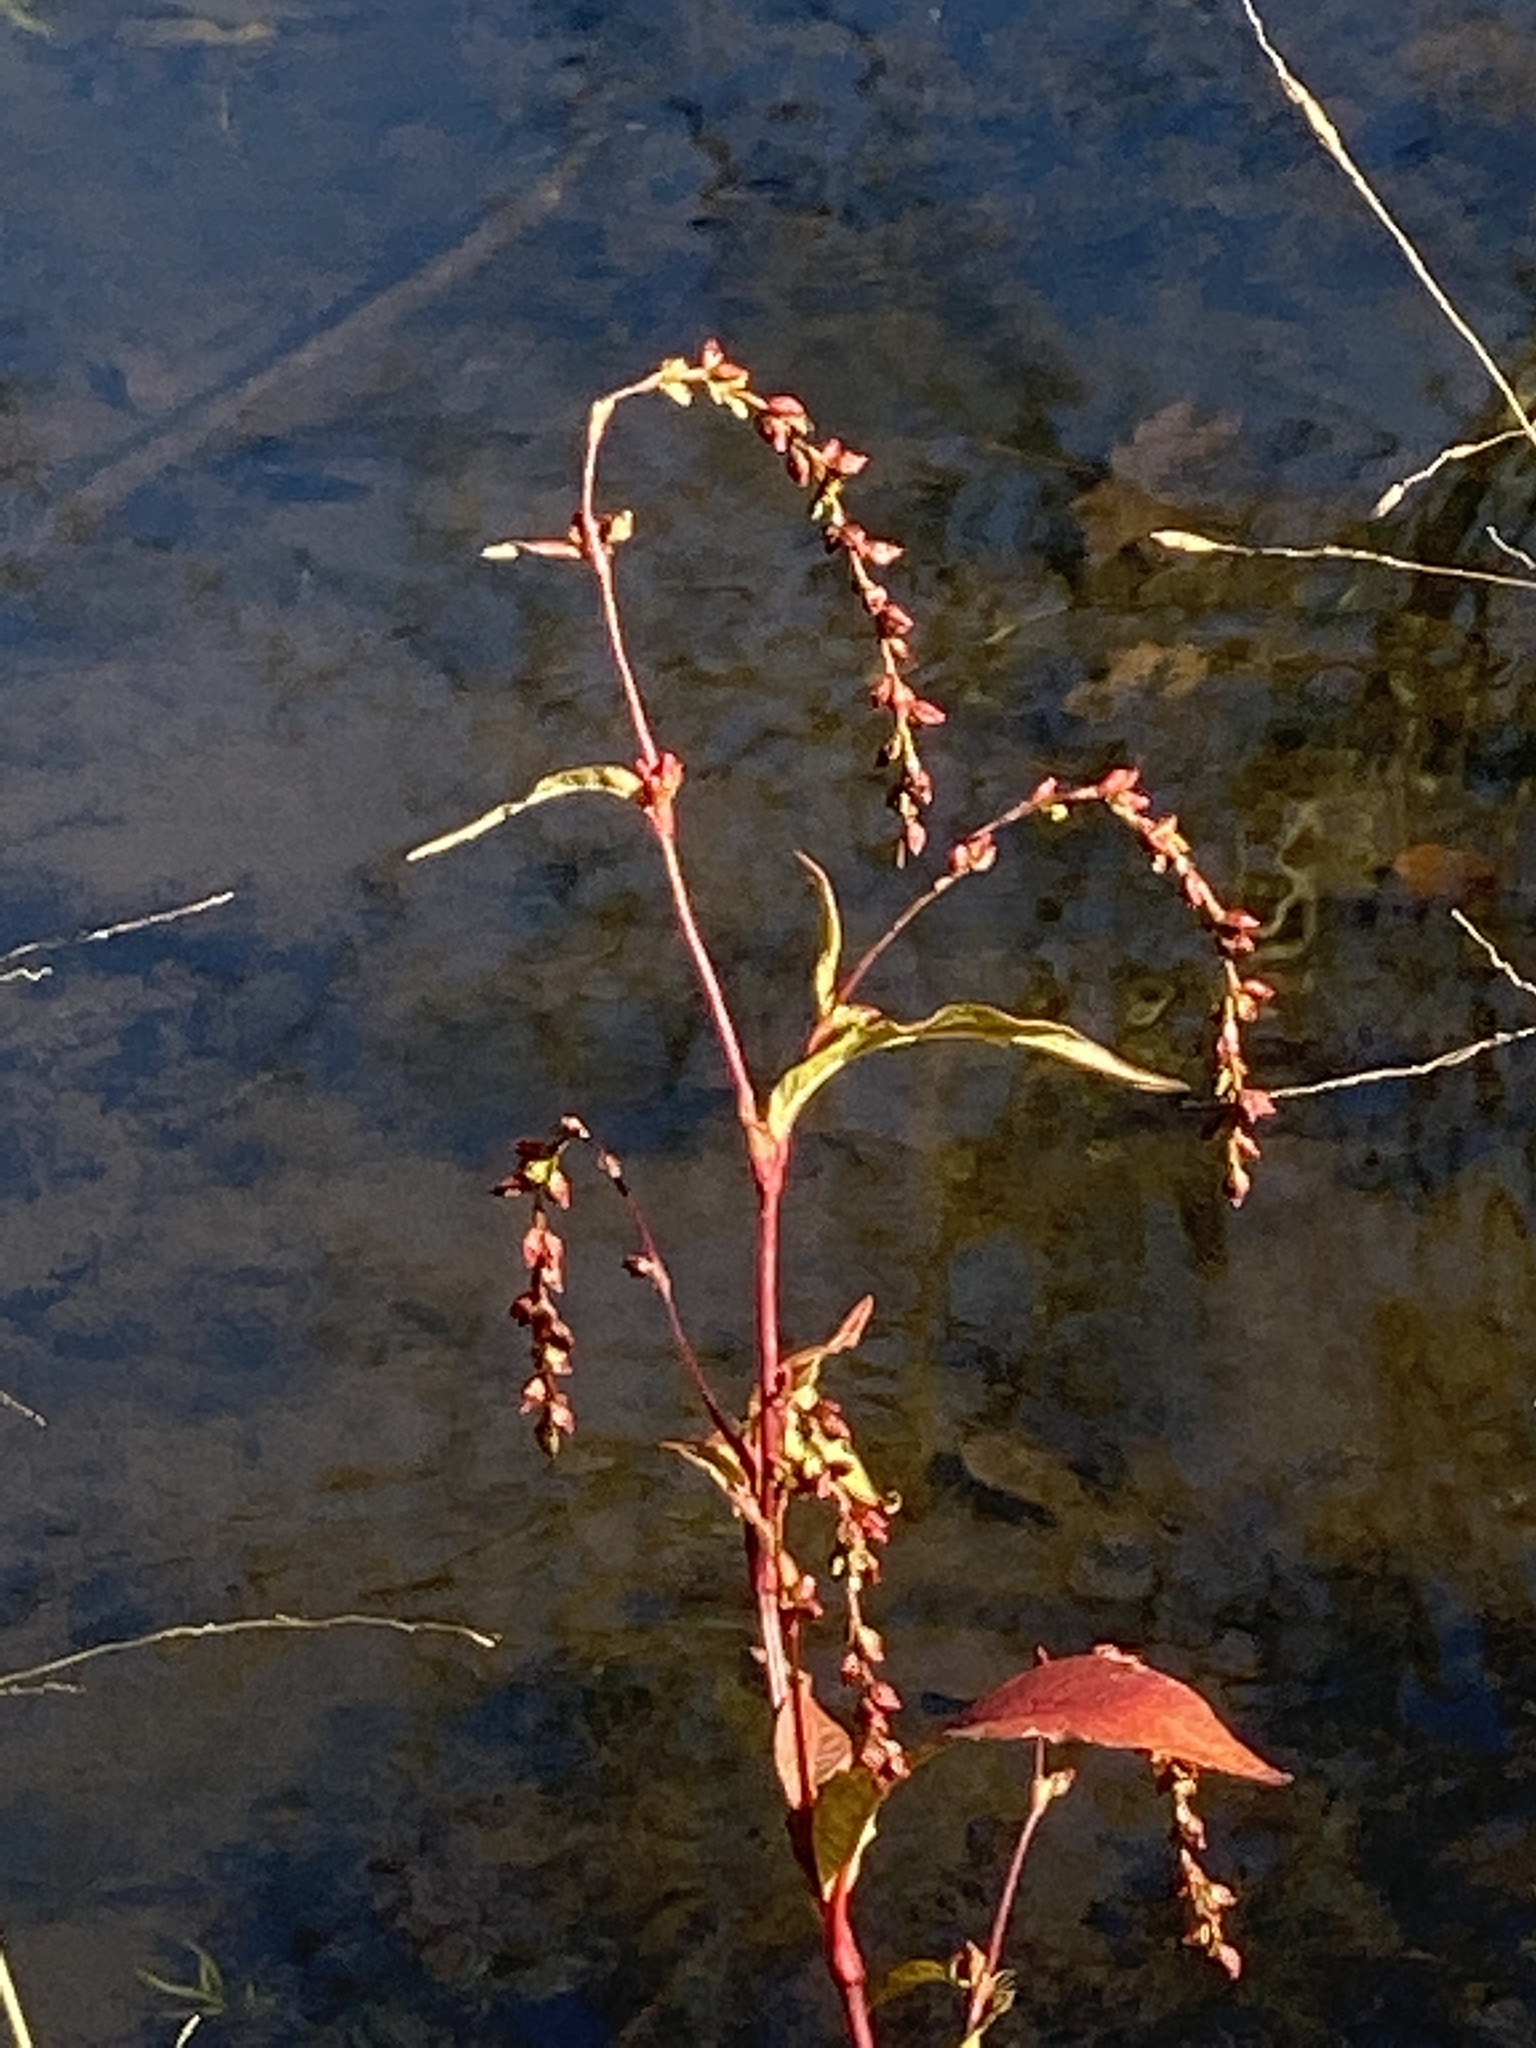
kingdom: Plantae
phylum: Tracheophyta
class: Magnoliopsida
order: Caryophyllales
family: Polygonaceae
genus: Persicaria
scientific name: Persicaria hydropiper
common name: Water-pepper
